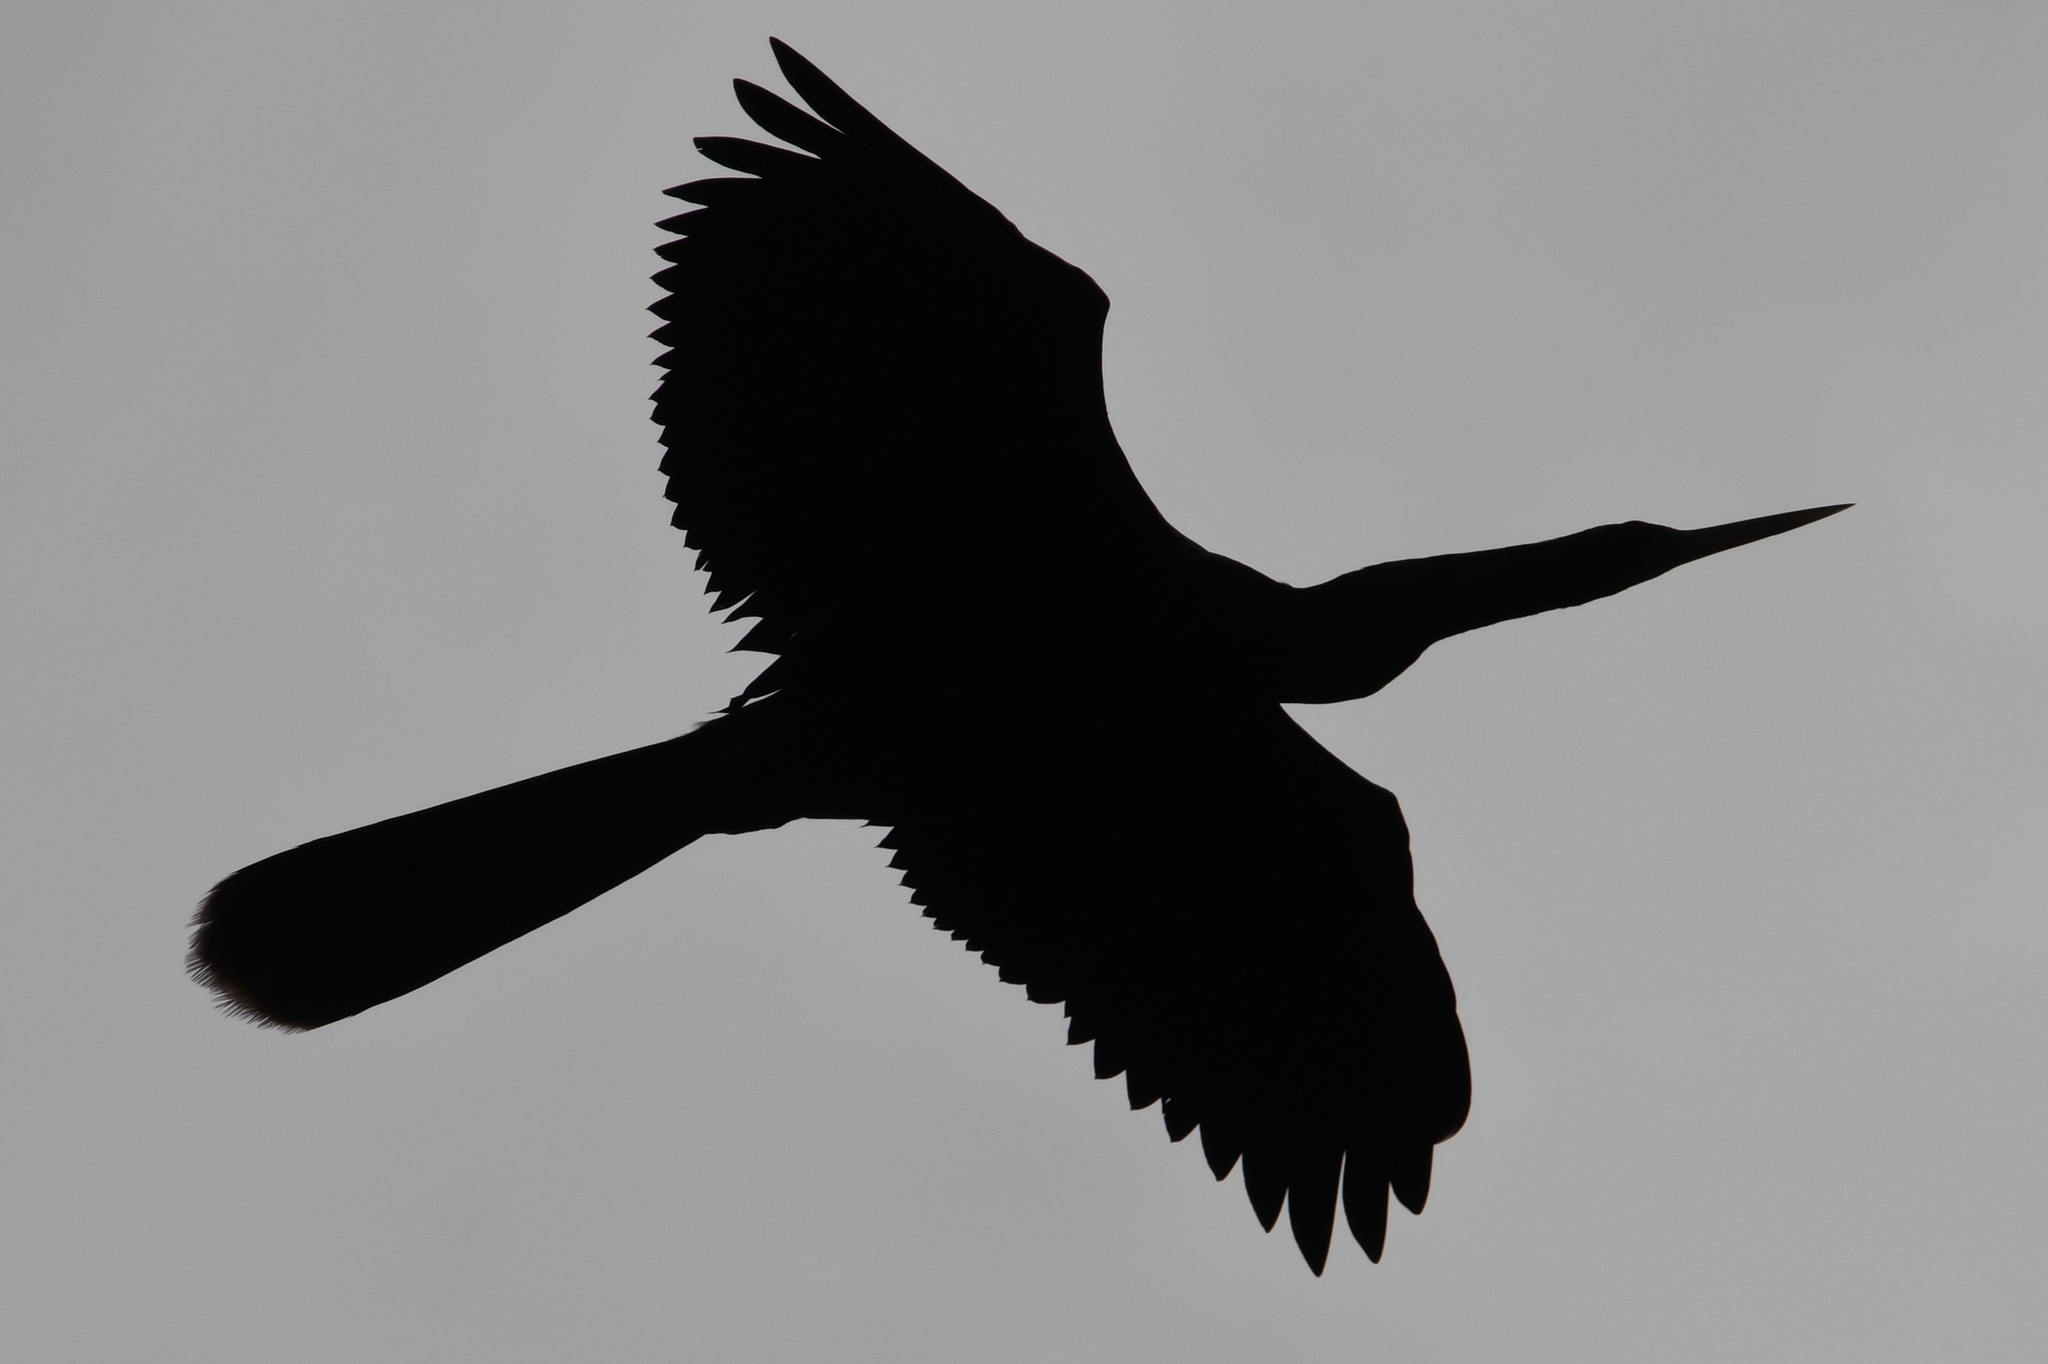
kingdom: Animalia
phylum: Chordata
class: Aves
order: Suliformes
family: Anhingidae
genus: Anhinga
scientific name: Anhinga anhinga
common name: Anhinga
